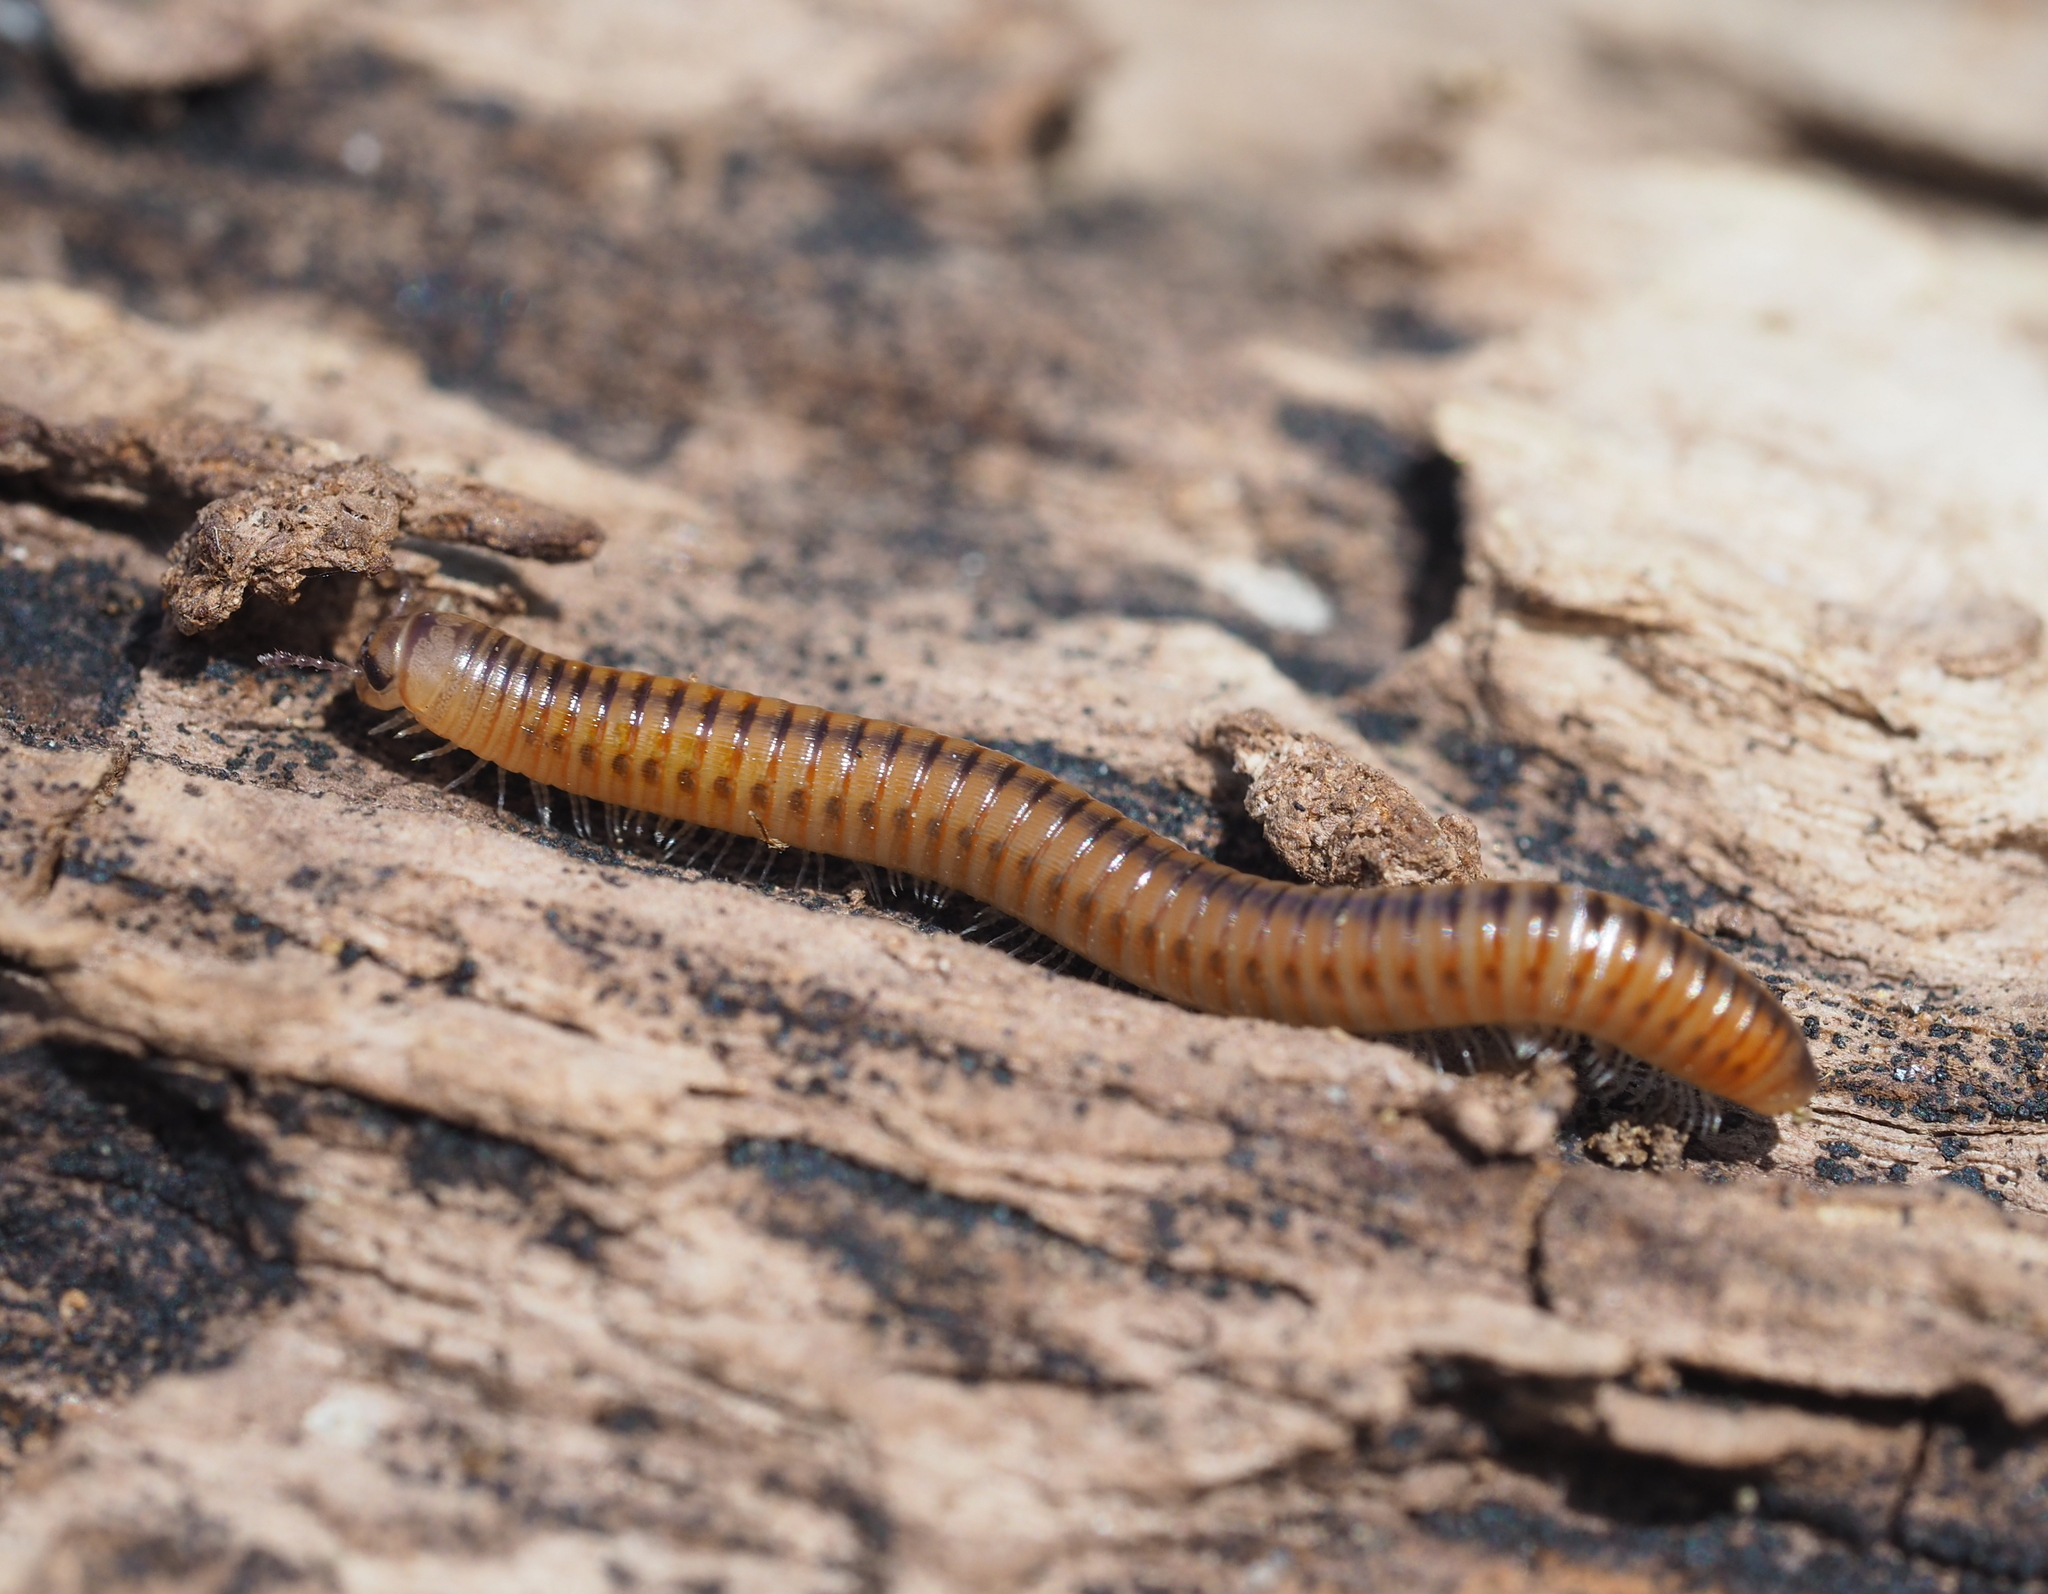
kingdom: Animalia
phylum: Arthropoda
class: Diplopoda
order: Julida
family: Julidae
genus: Cylindroiulus
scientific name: Cylindroiulus luridus
